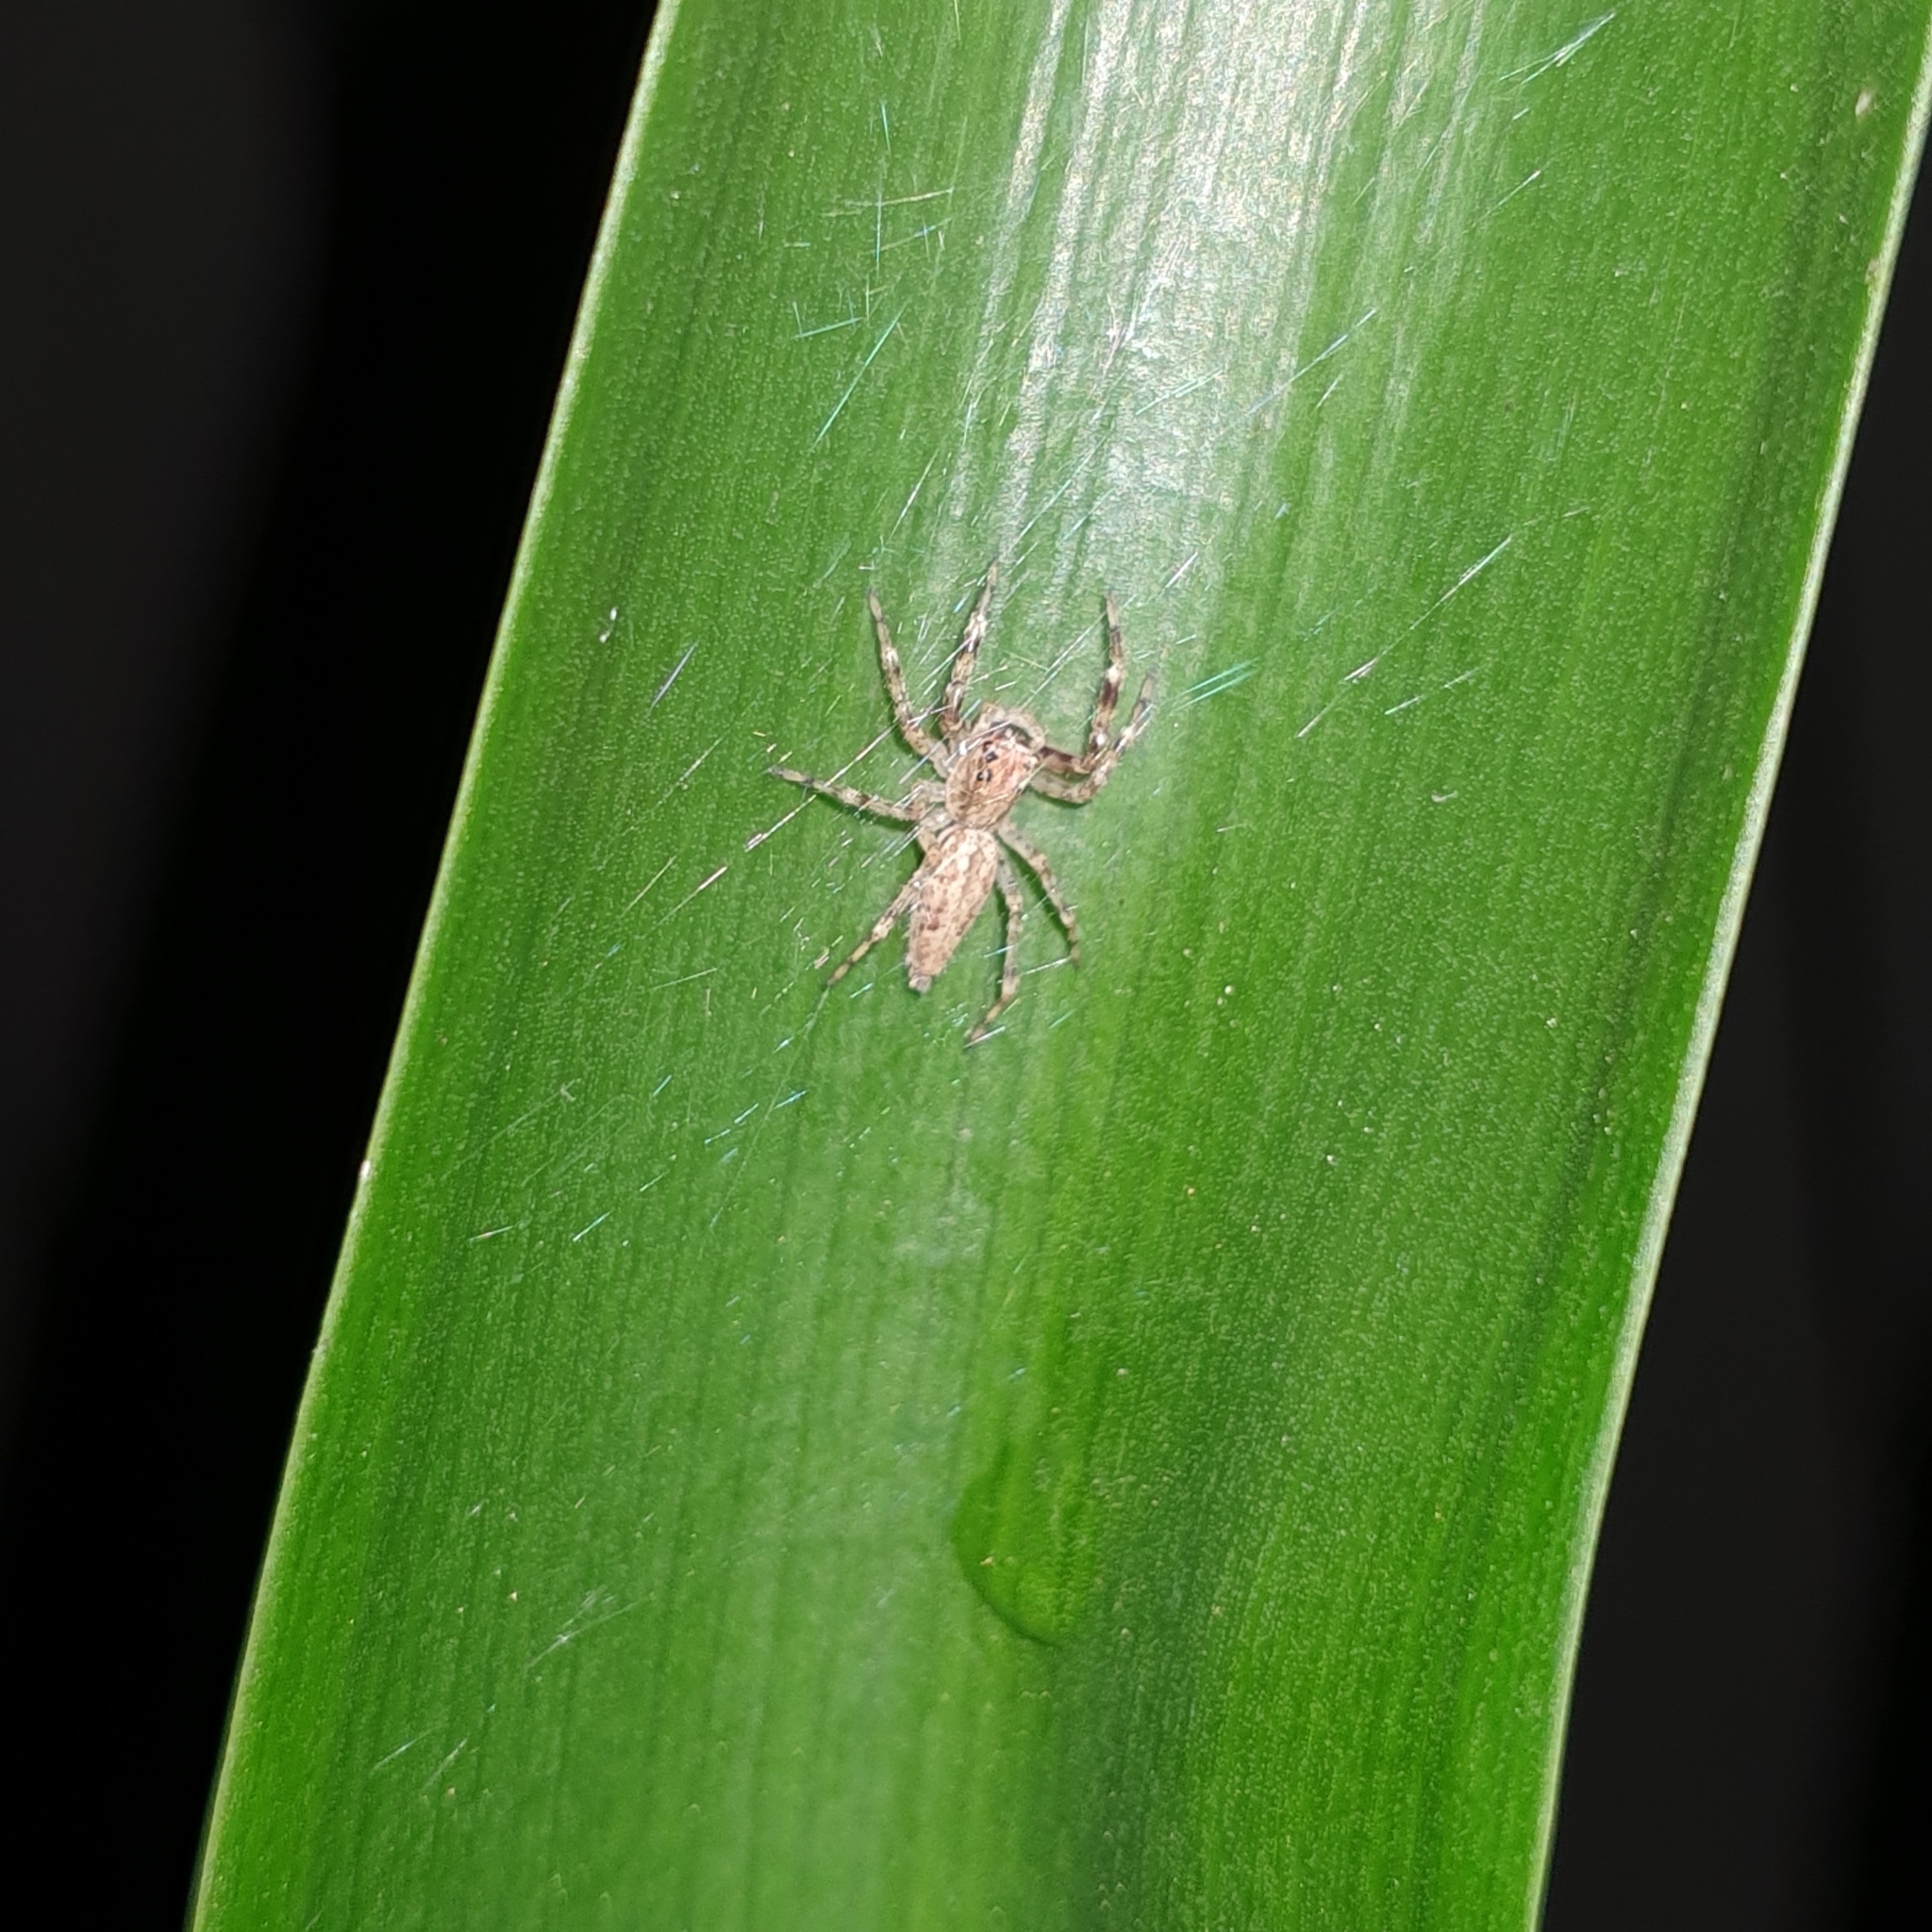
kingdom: Animalia
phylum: Arthropoda
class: Arachnida
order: Araneae
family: Salticidae
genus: Helpis
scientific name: Helpis minitabunda
